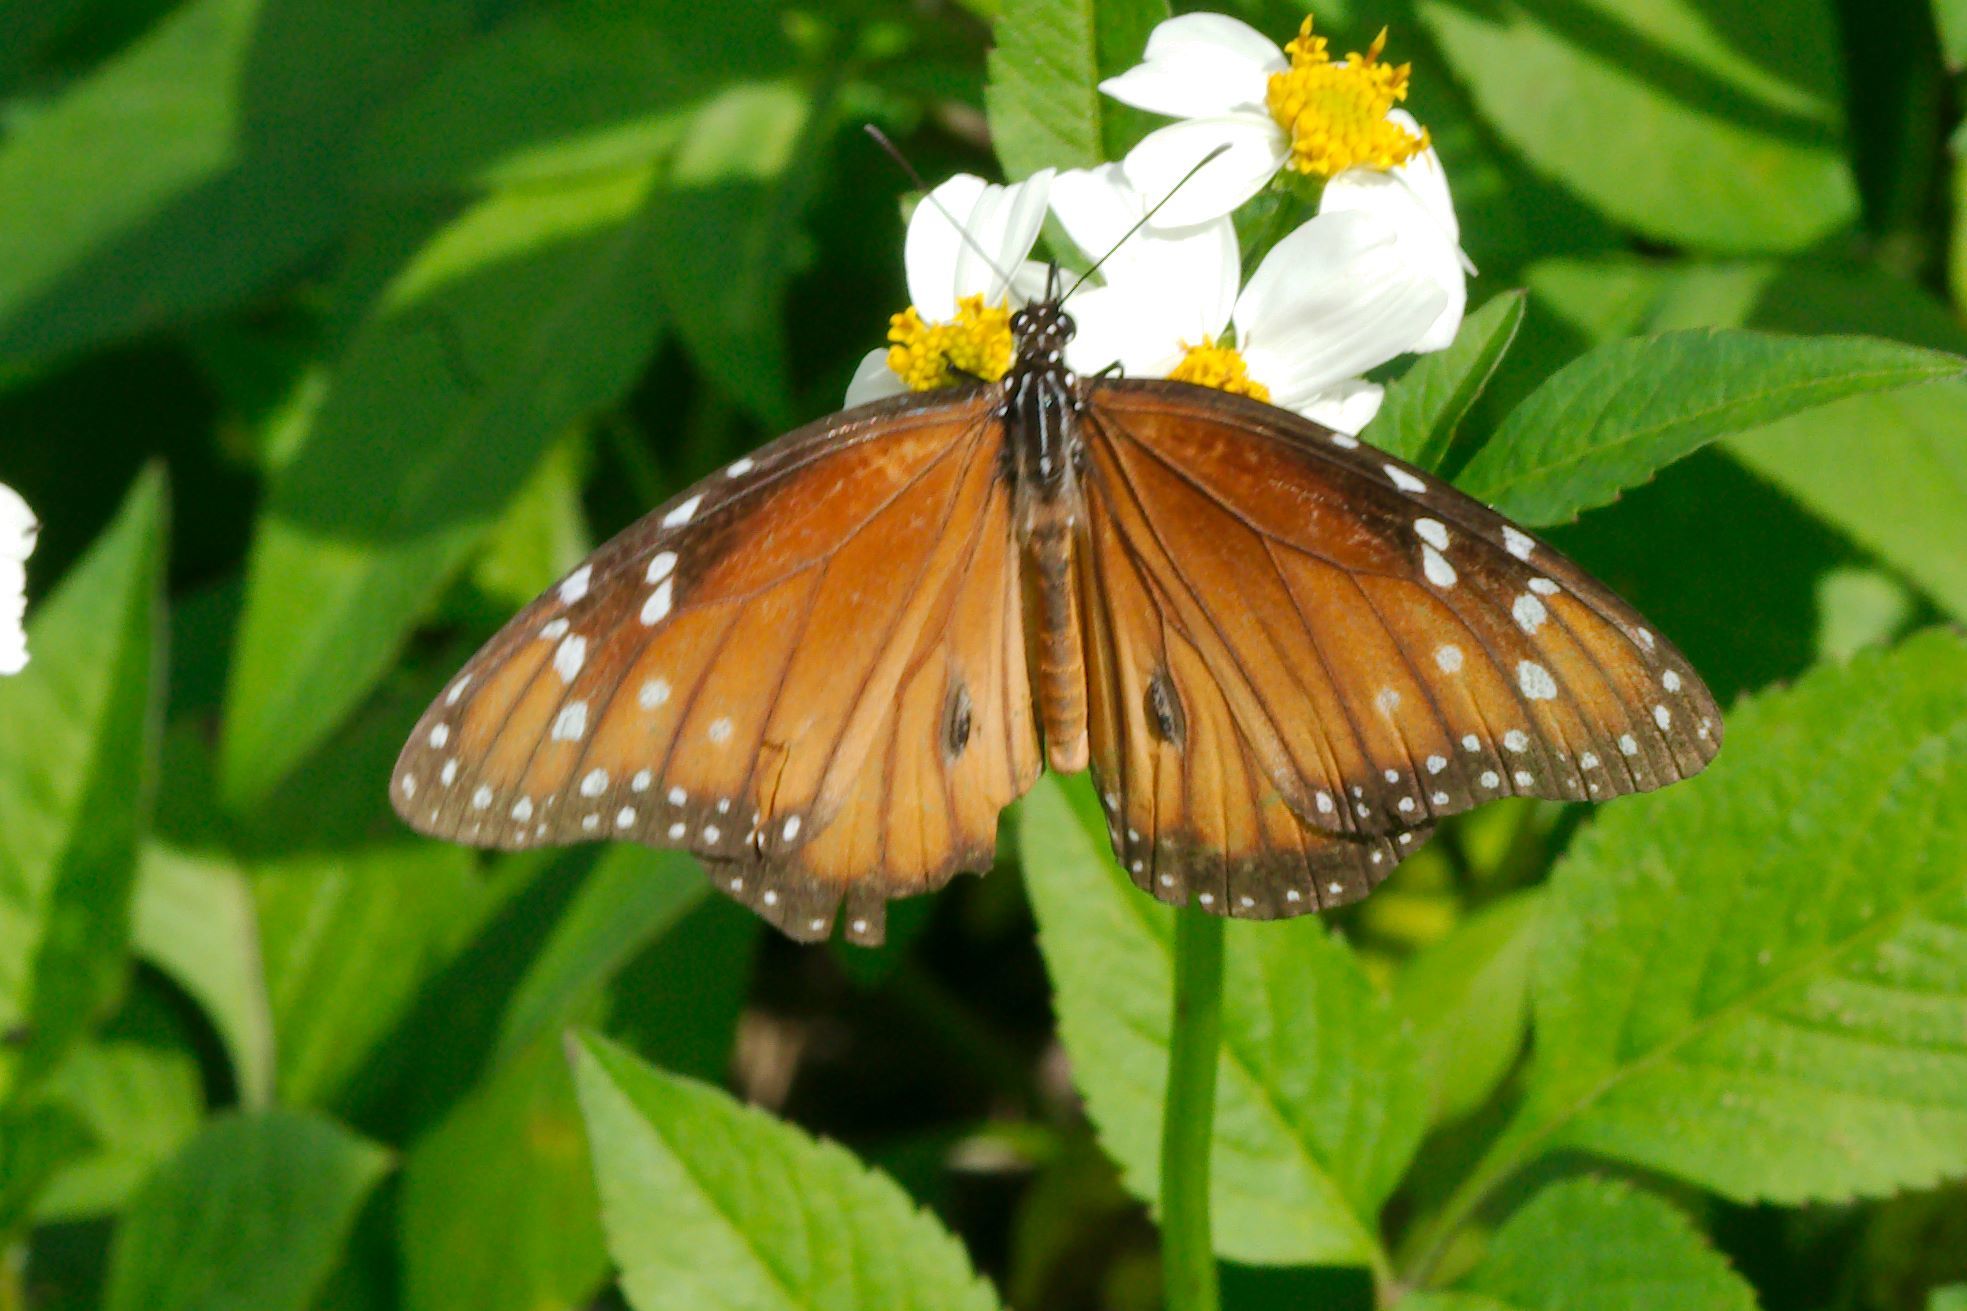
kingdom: Animalia
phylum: Arthropoda
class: Insecta
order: Lepidoptera
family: Nymphalidae
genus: Danaus
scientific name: Danaus gilippus
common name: Queen
